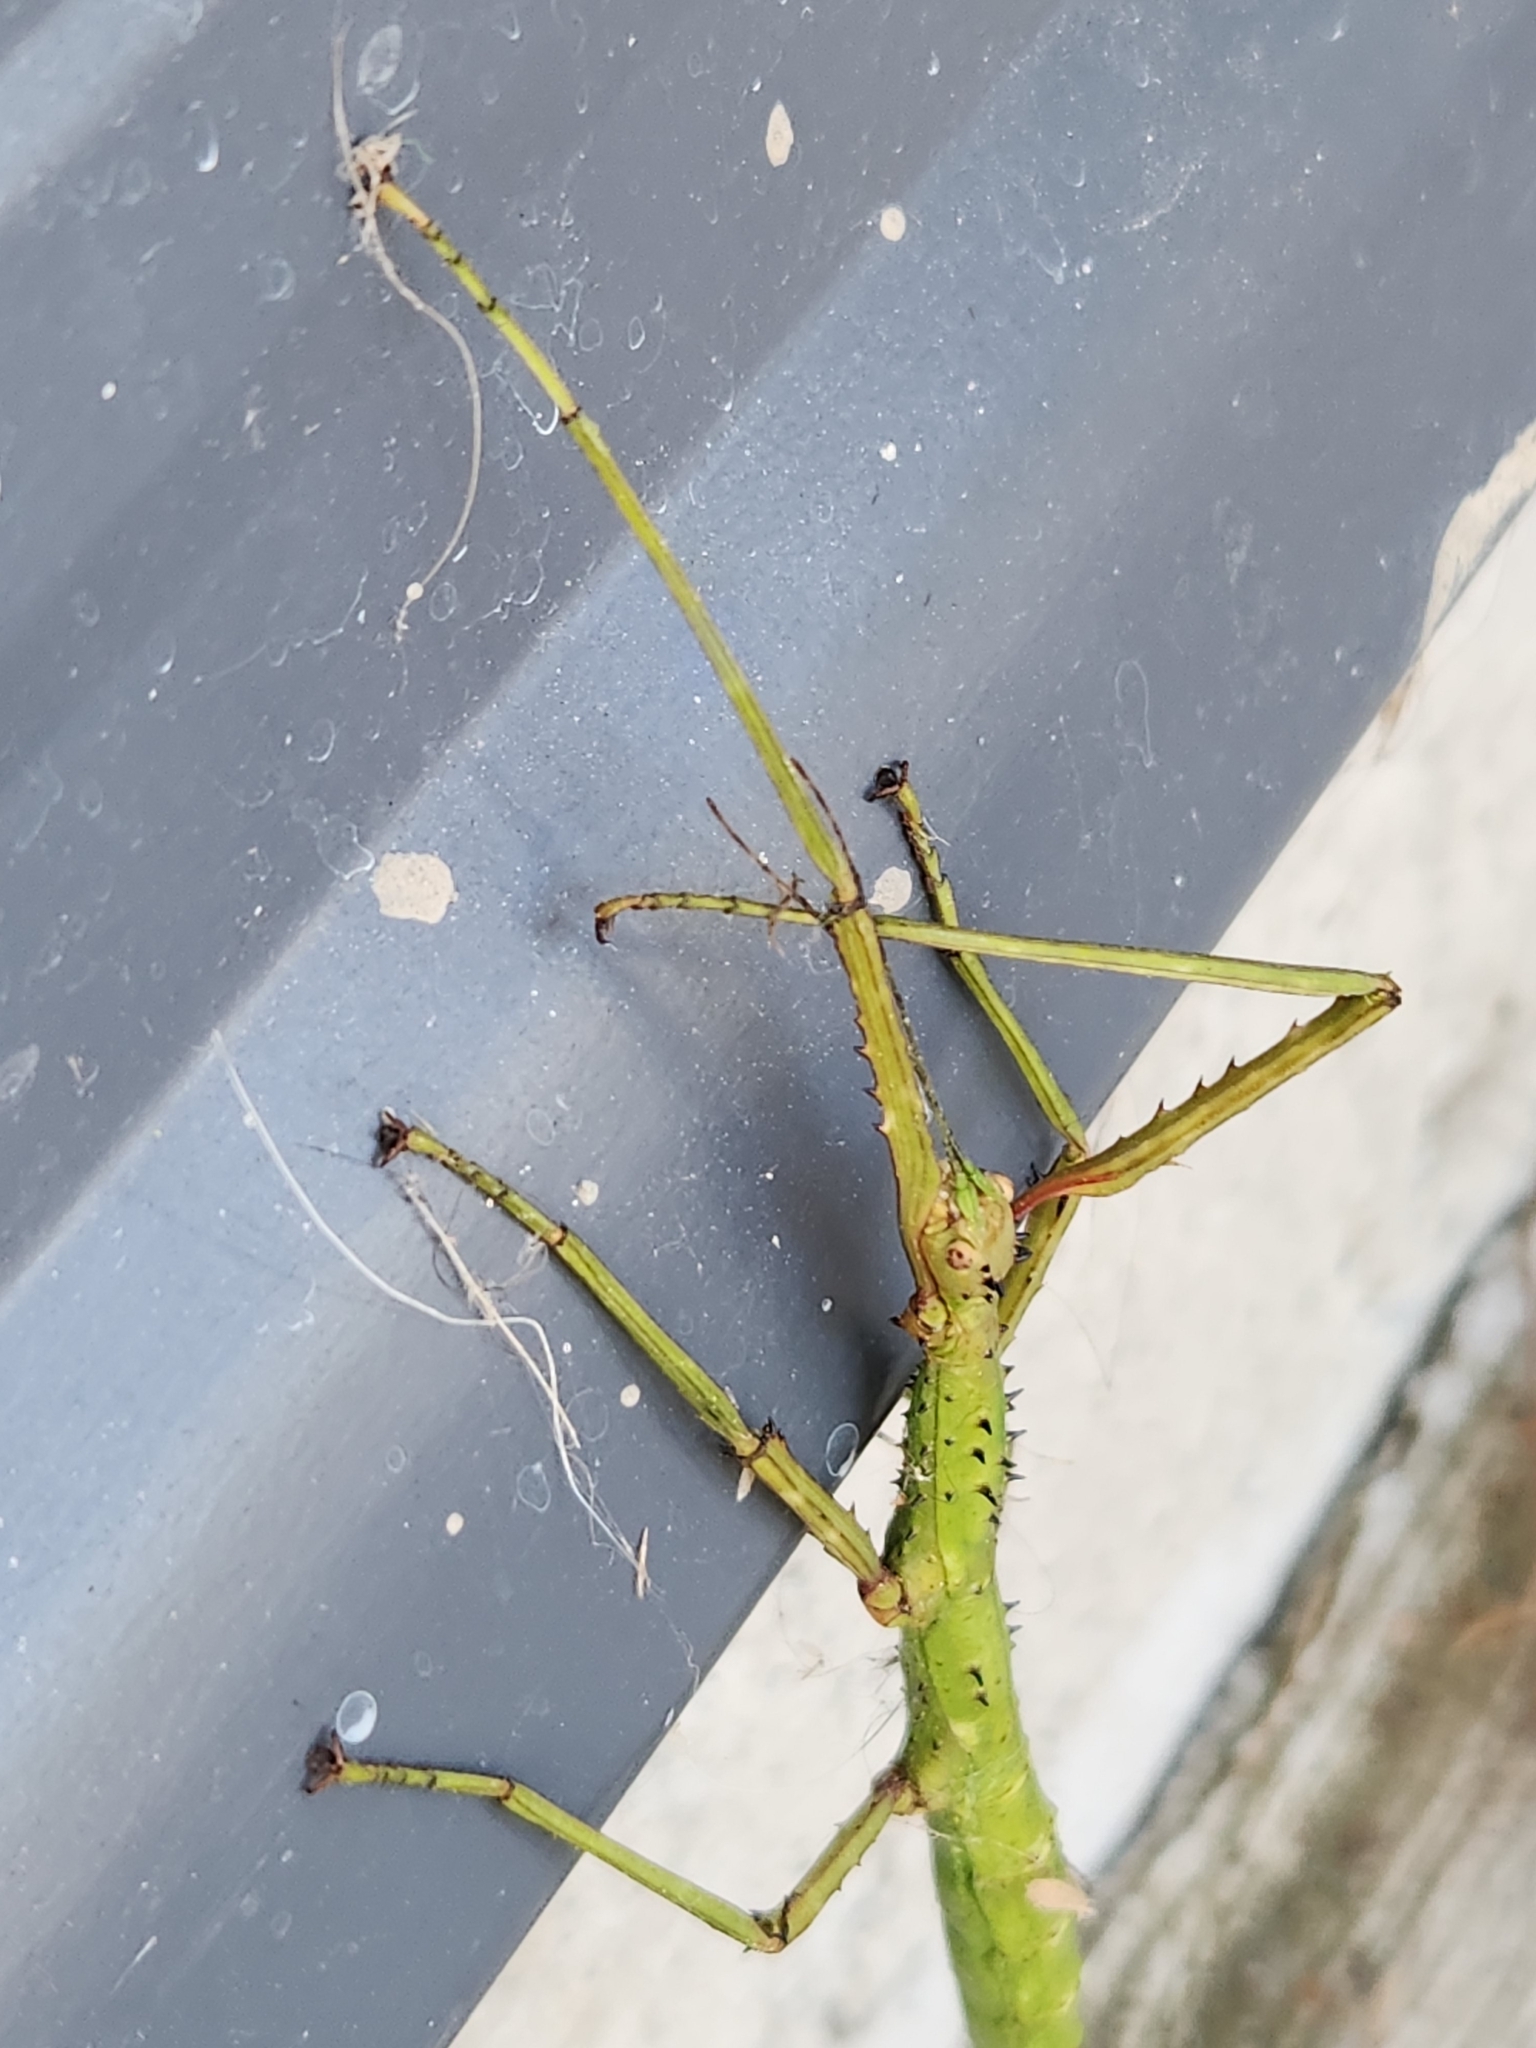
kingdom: Animalia
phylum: Arthropoda
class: Insecta
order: Phasmida
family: Phasmatidae
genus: Acanthoxyla
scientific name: Acanthoxyla prasina
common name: Black-spined stick insect
